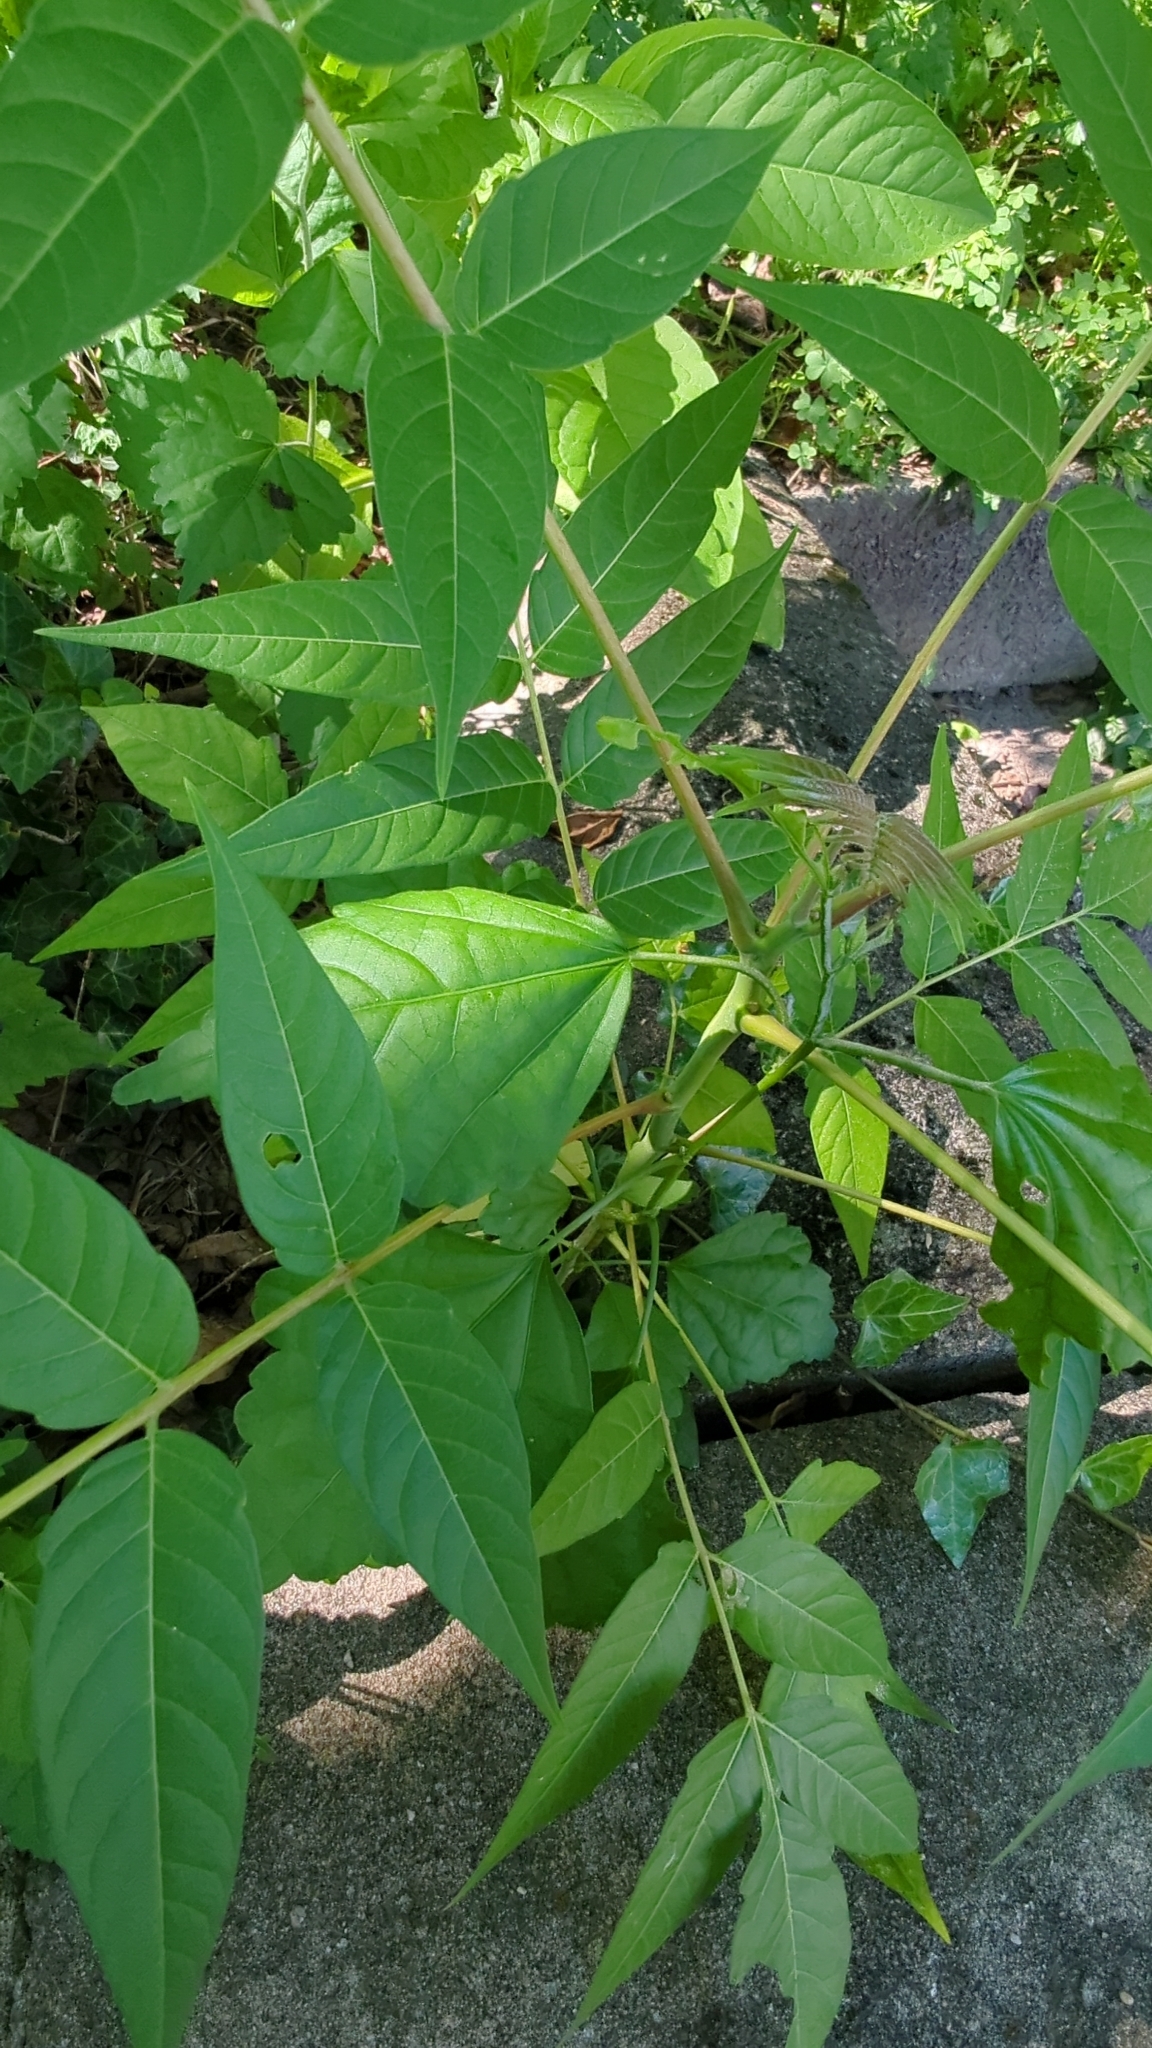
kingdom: Plantae
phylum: Tracheophyta
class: Magnoliopsida
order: Sapindales
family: Simaroubaceae
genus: Ailanthus
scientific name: Ailanthus altissima
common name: Tree-of-heaven
